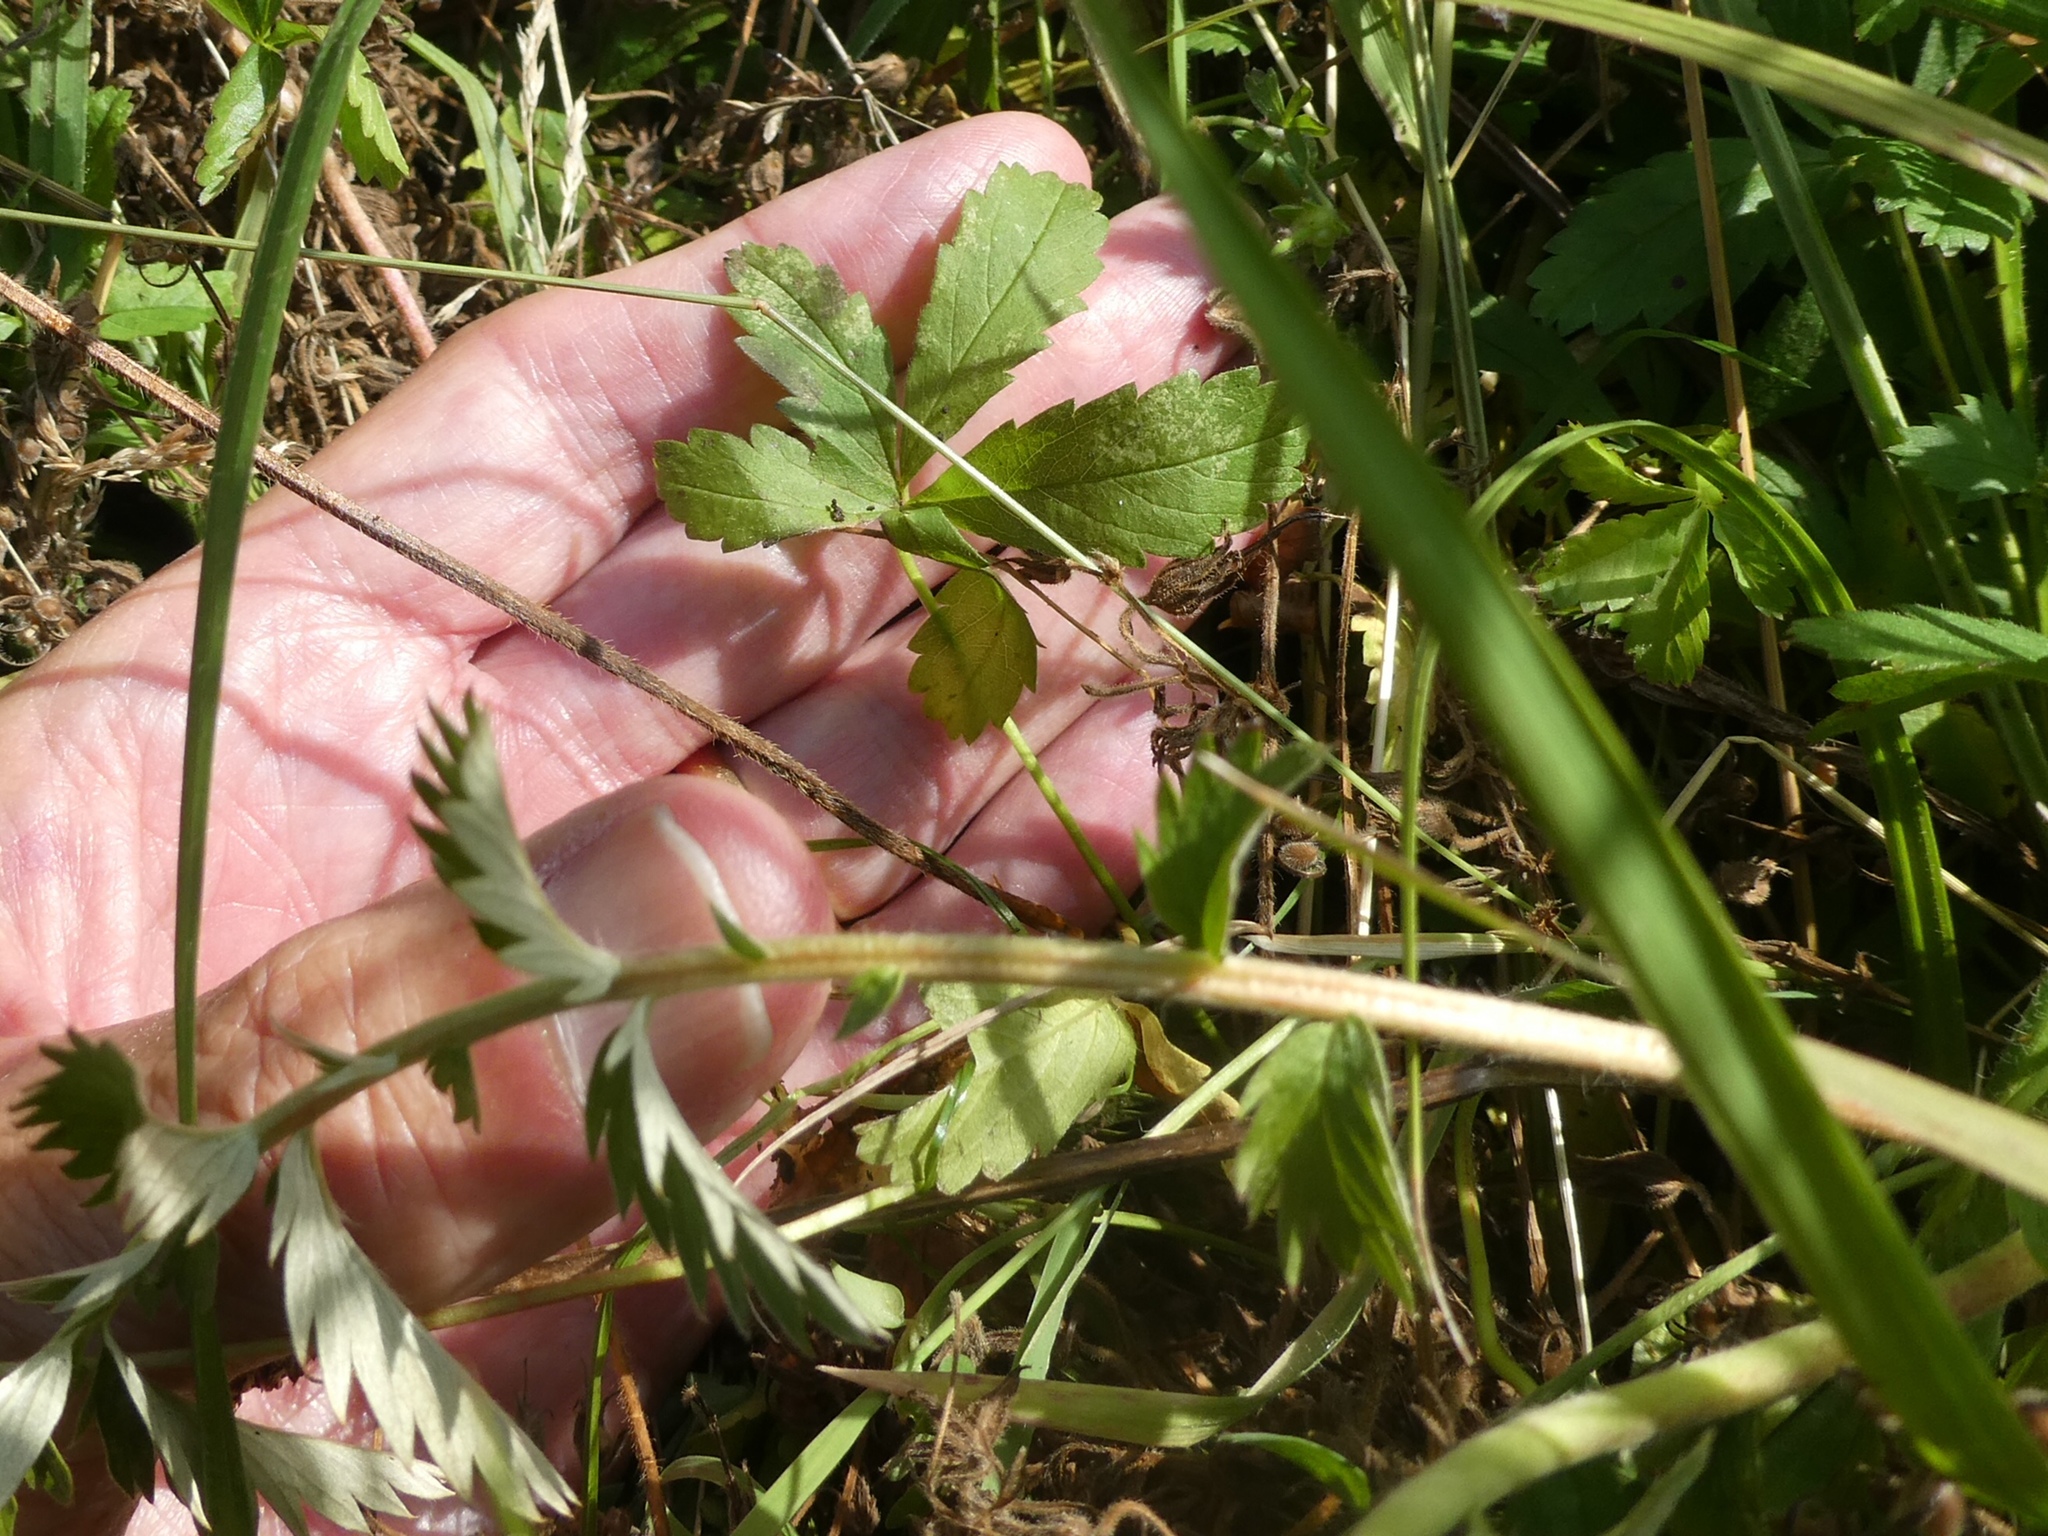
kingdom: Plantae
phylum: Tracheophyta
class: Magnoliopsida
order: Rosales
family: Rosaceae
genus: Potentilla
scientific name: Potentilla reptans
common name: Creeping cinquefoil
